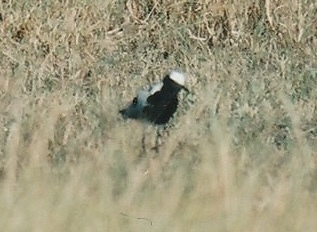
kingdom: Animalia
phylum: Chordata
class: Aves
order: Charadriiformes
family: Charadriidae
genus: Vanellus
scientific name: Vanellus armatus
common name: Blacksmith lapwing
